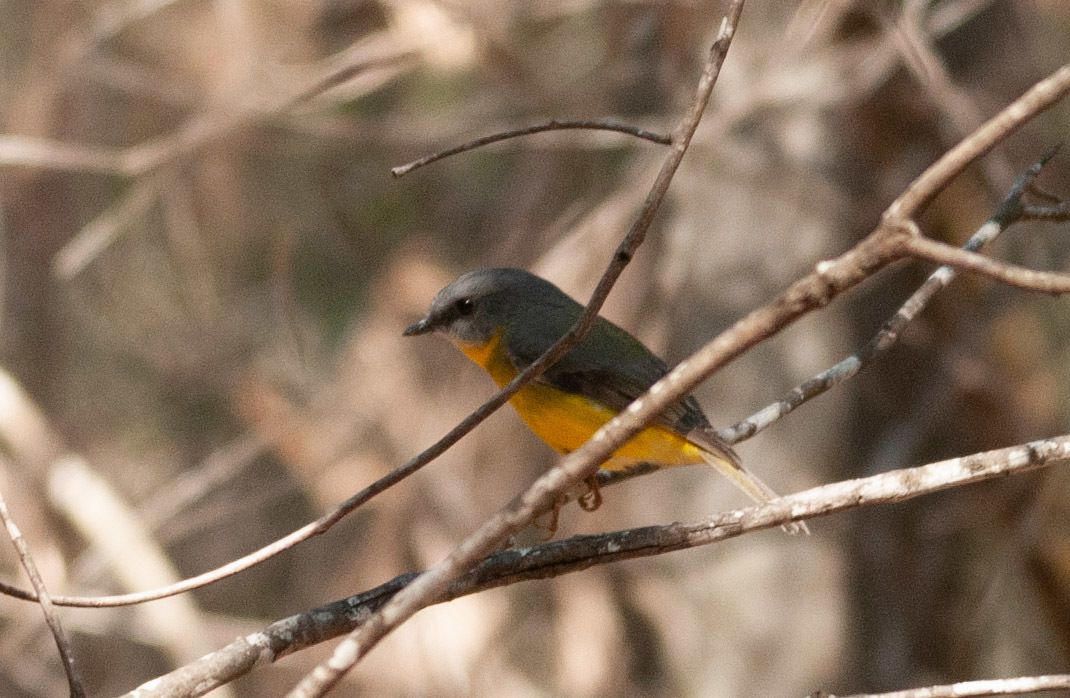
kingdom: Animalia
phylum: Chordata
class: Aves
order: Passeriformes
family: Petroicidae
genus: Eopsaltria
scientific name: Eopsaltria australis
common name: Eastern yellow robin
